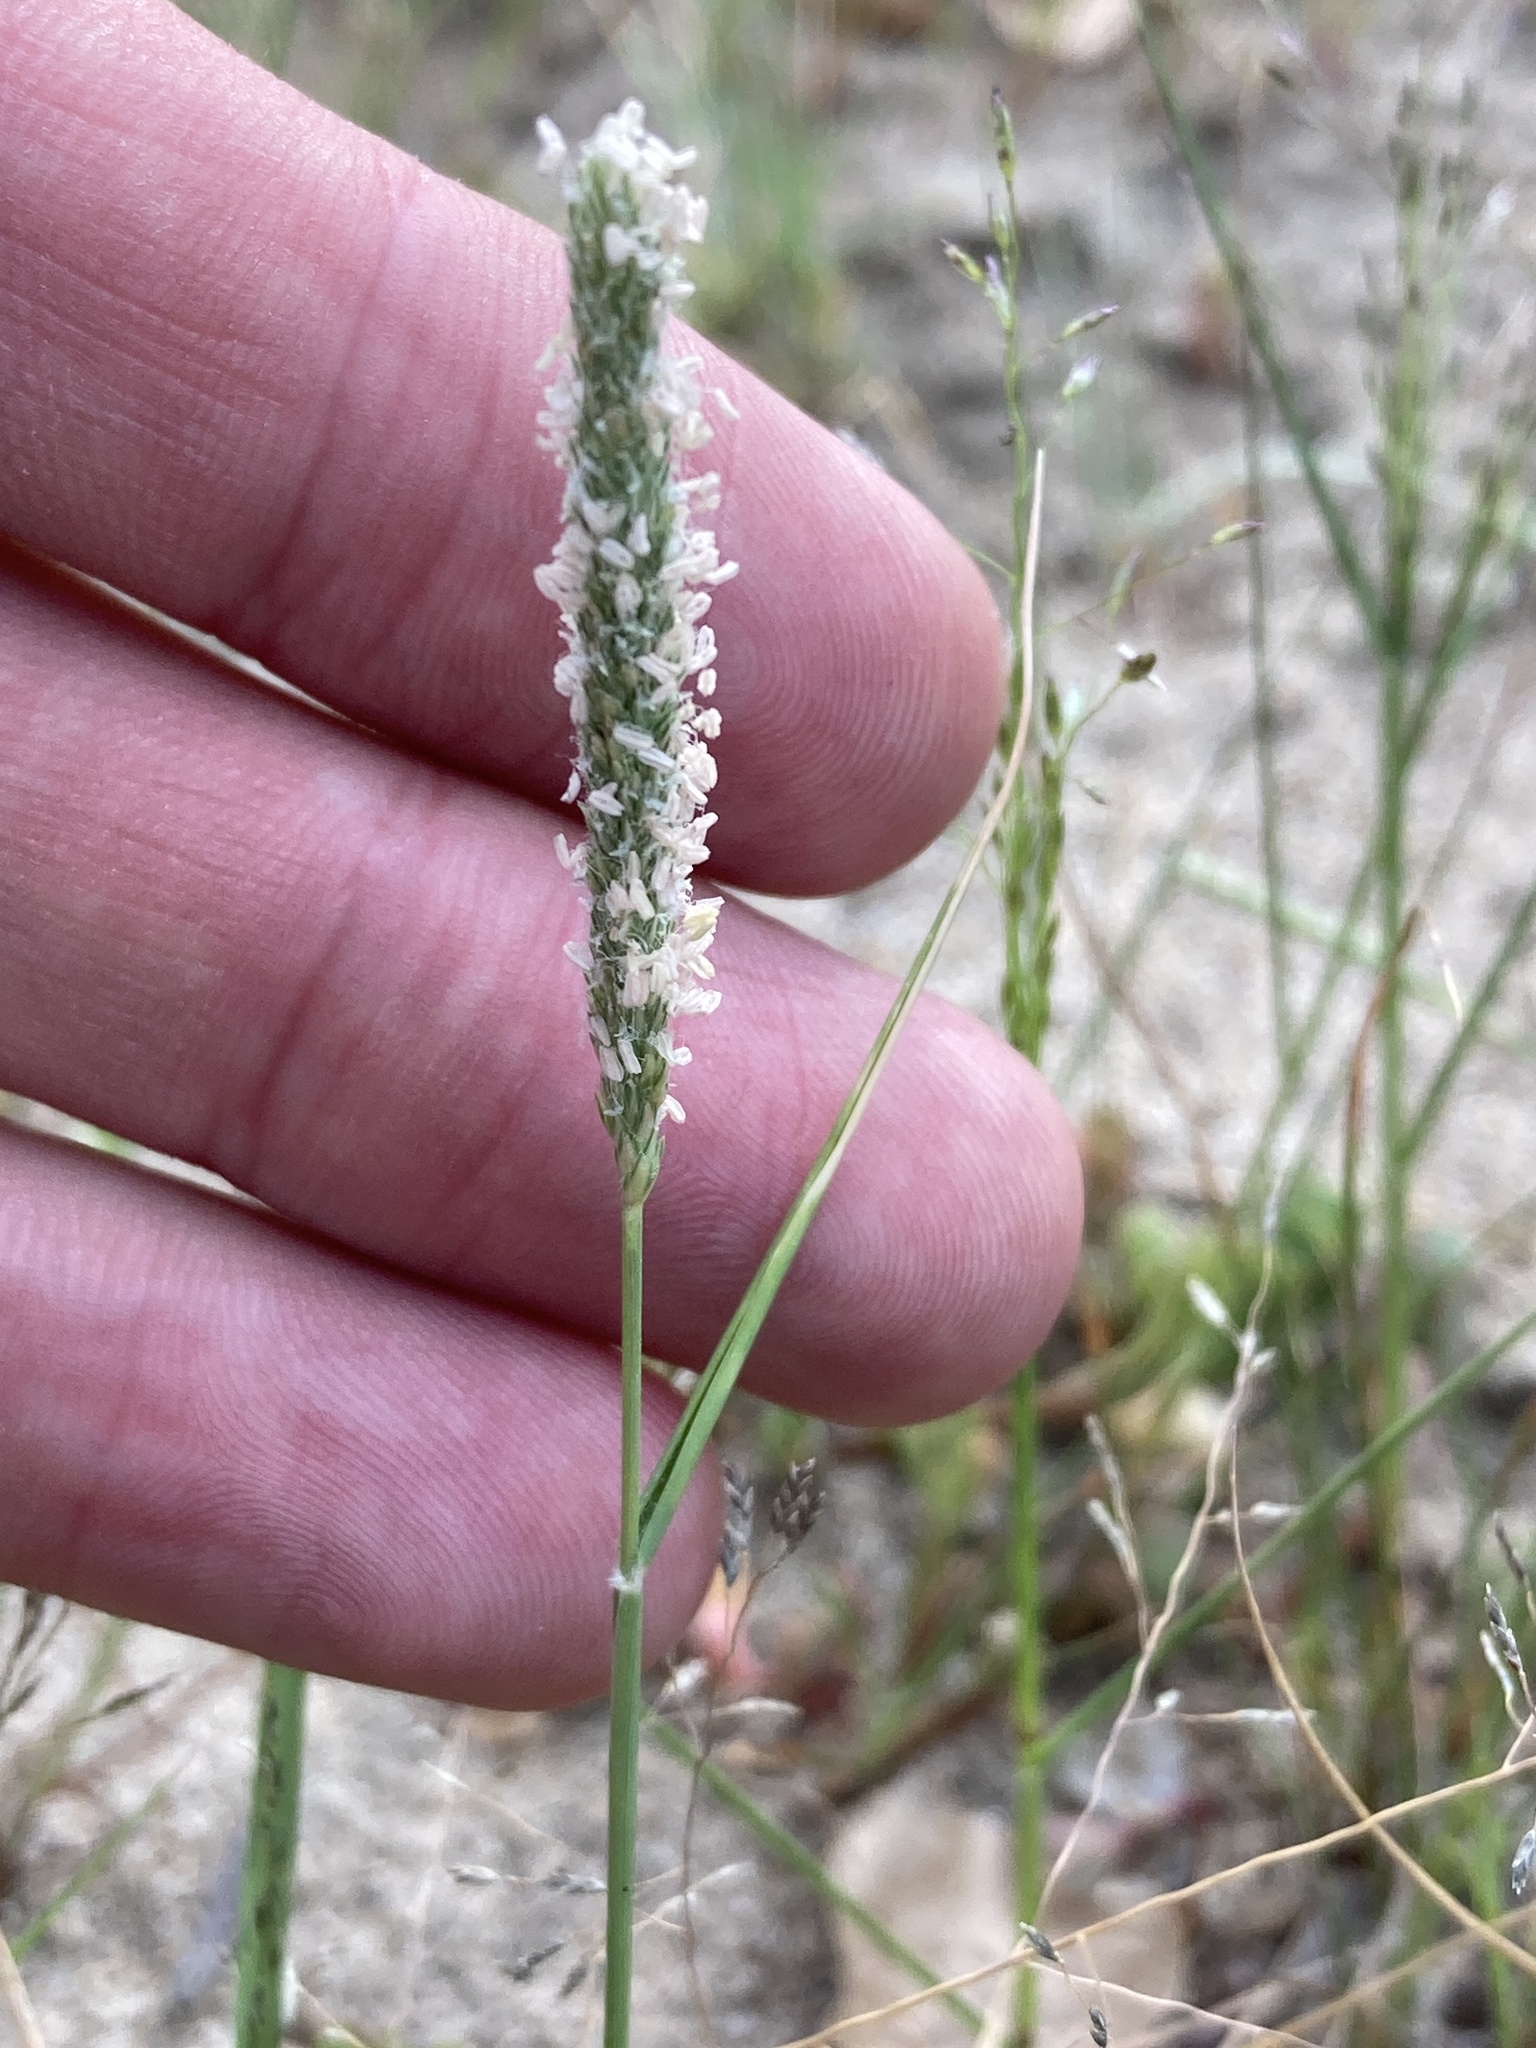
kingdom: Plantae
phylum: Tracheophyta
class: Liliopsida
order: Poales
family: Poaceae
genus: Sporobolus
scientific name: Sporobolus alopecuroides
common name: Foxtail pricklegrass
